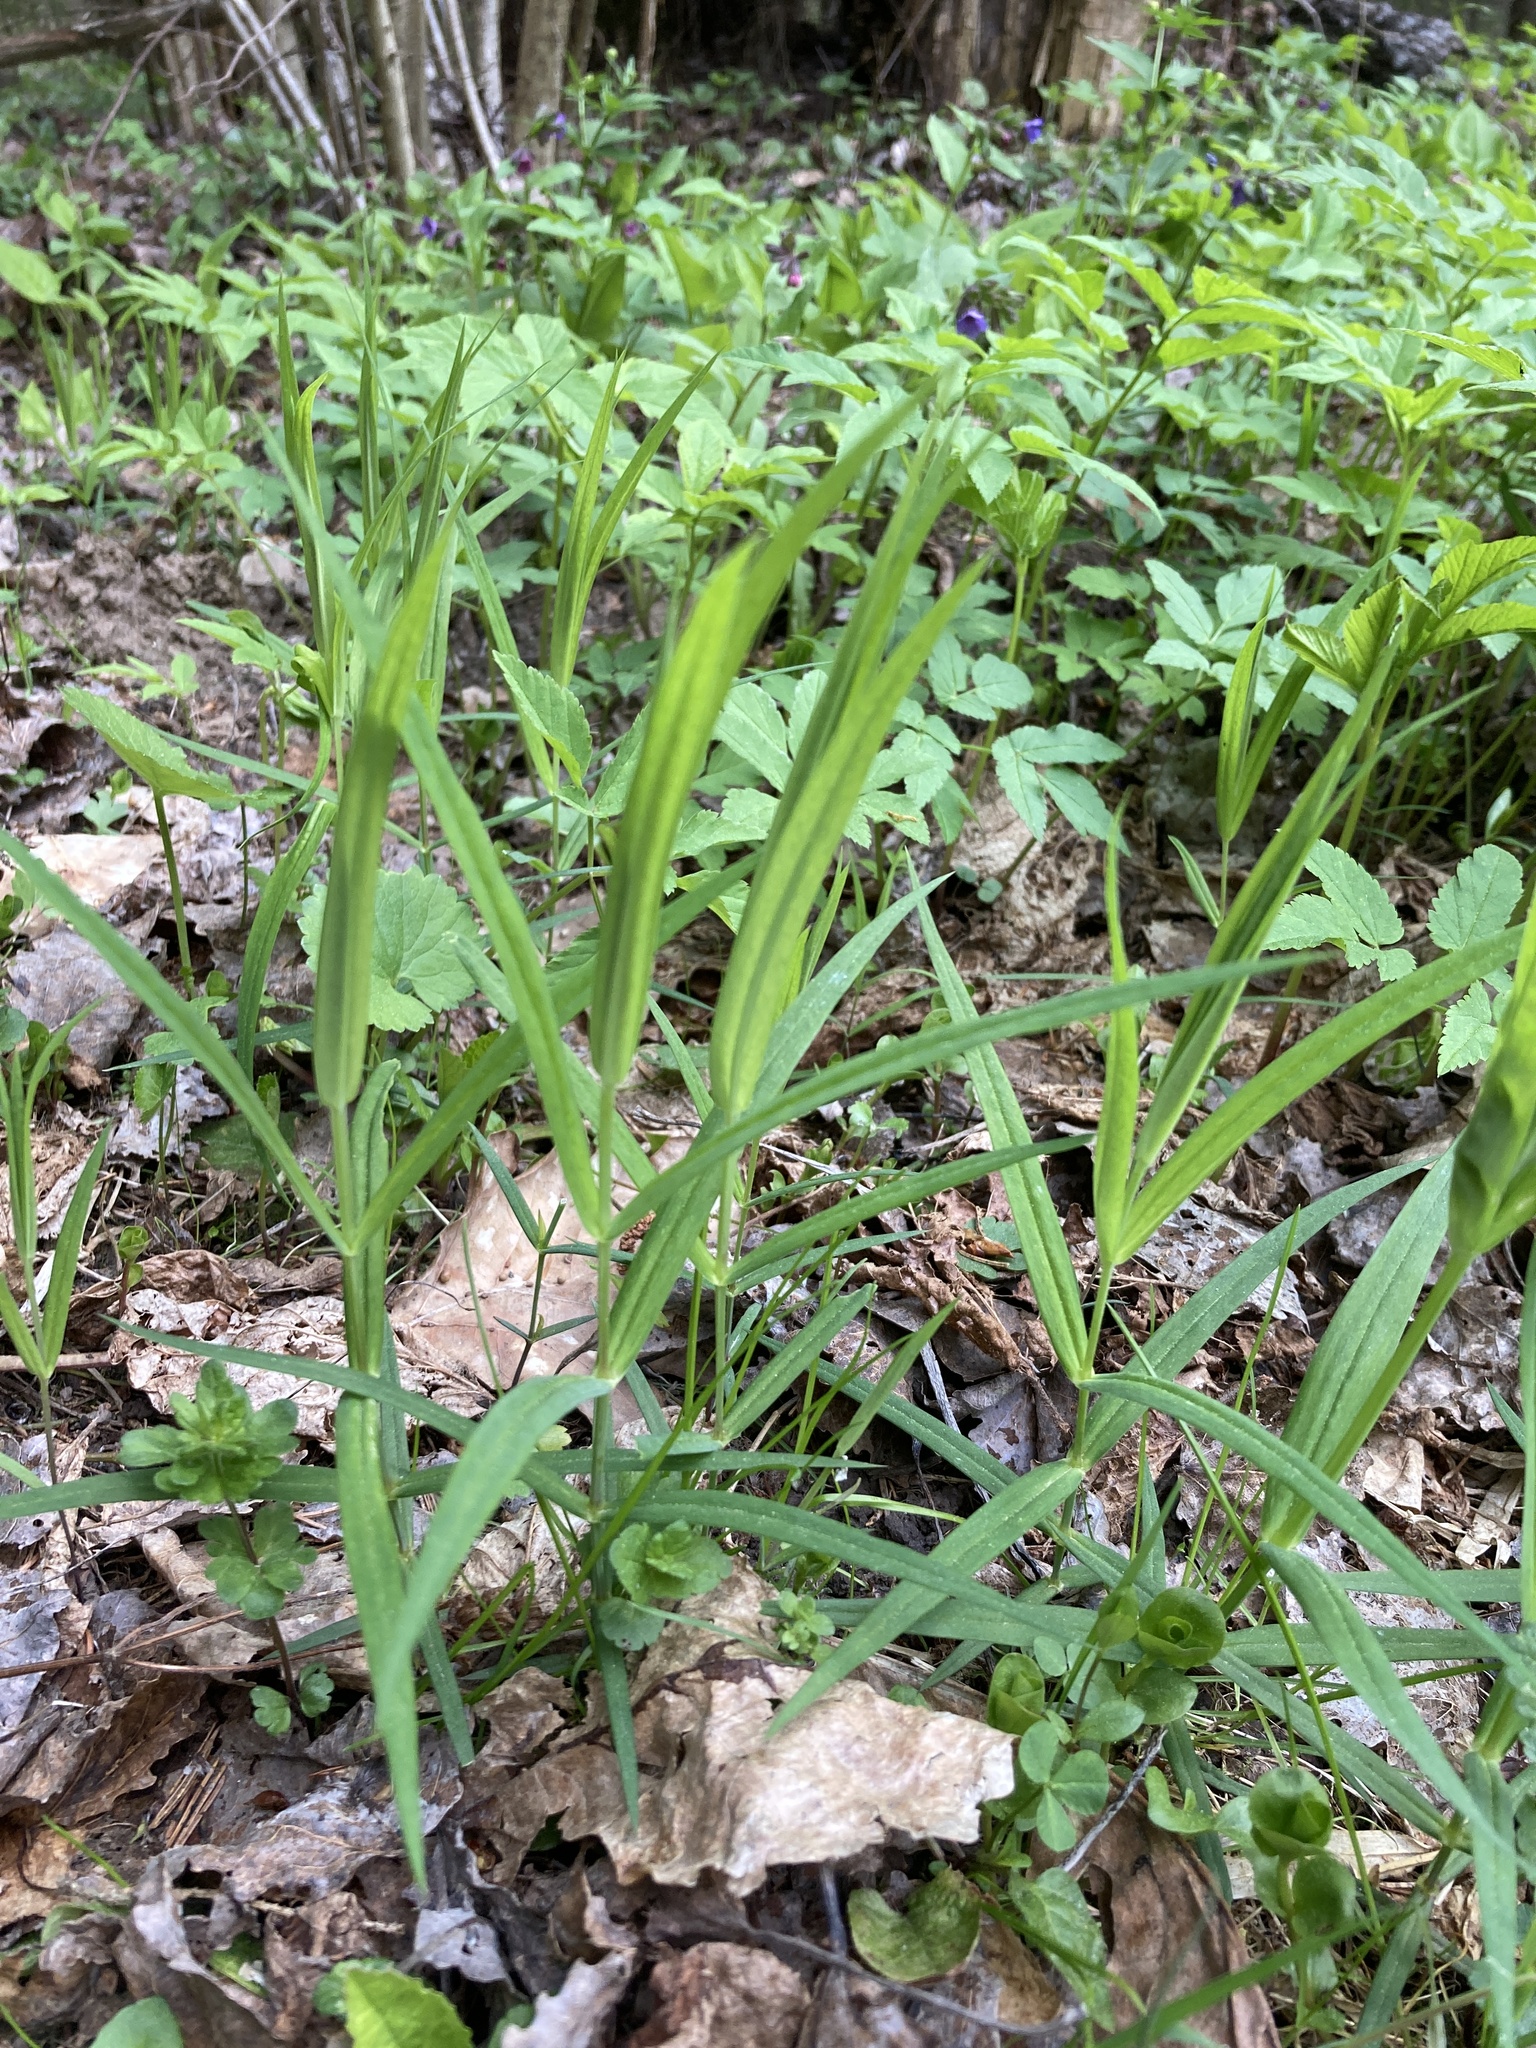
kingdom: Plantae
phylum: Tracheophyta
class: Magnoliopsida
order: Caryophyllales
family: Caryophyllaceae
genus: Rabelera
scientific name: Rabelera holostea
